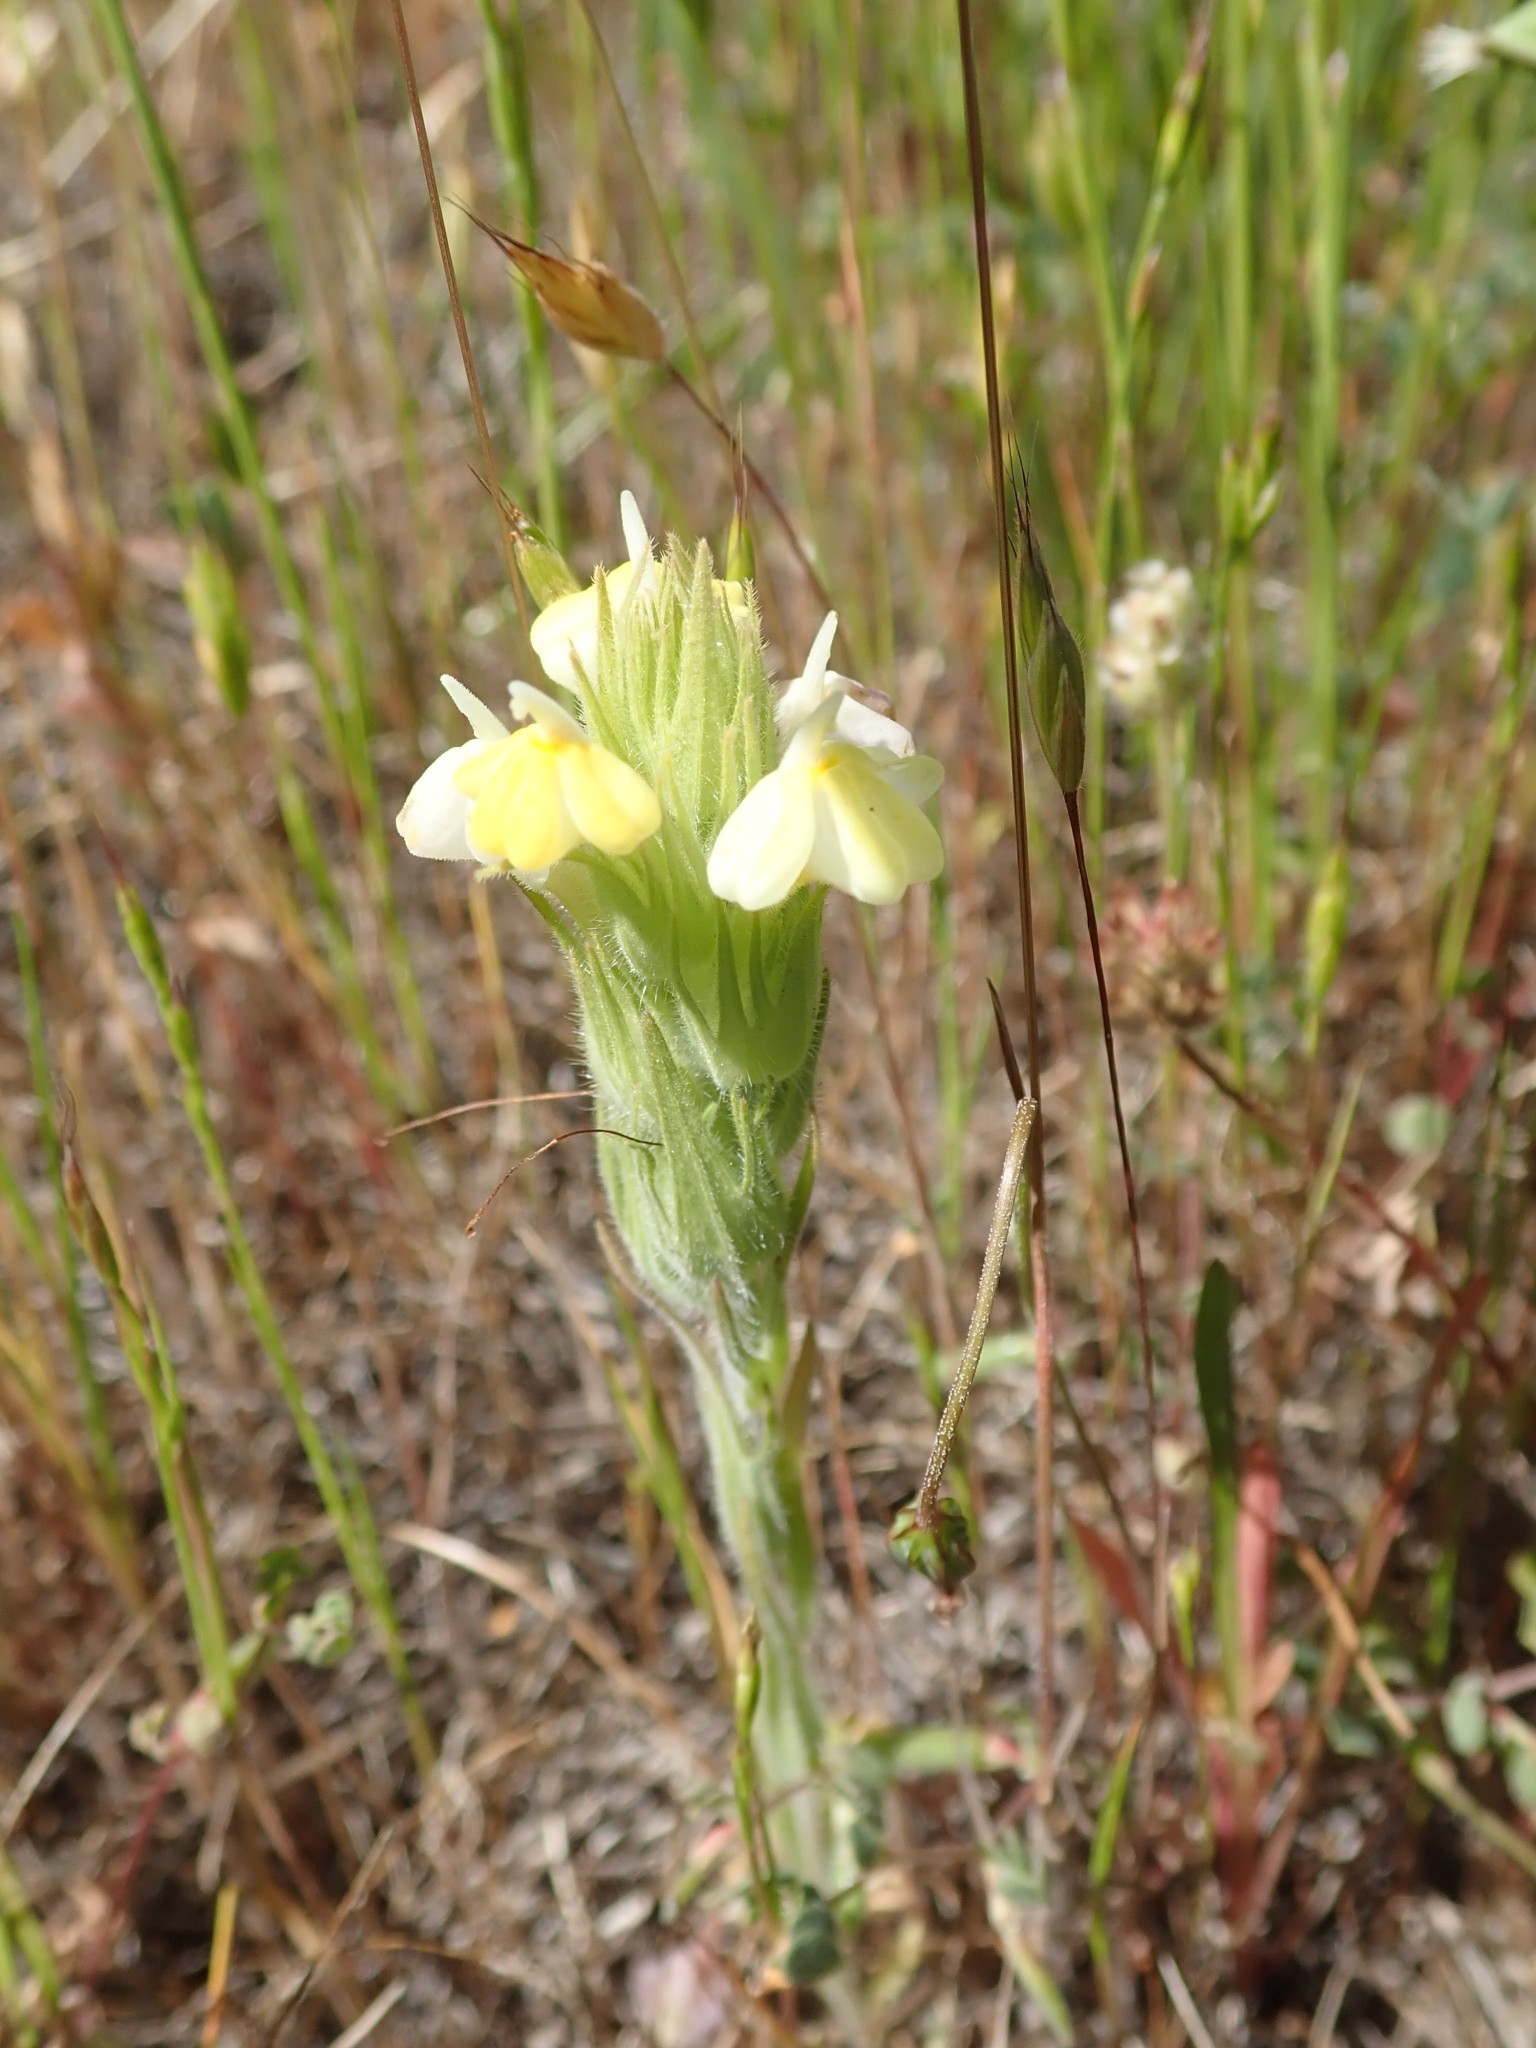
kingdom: Plantae
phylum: Tracheophyta
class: Magnoliopsida
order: Lamiales
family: Orobanchaceae
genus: Castilleja
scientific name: Castilleja rubicundula
